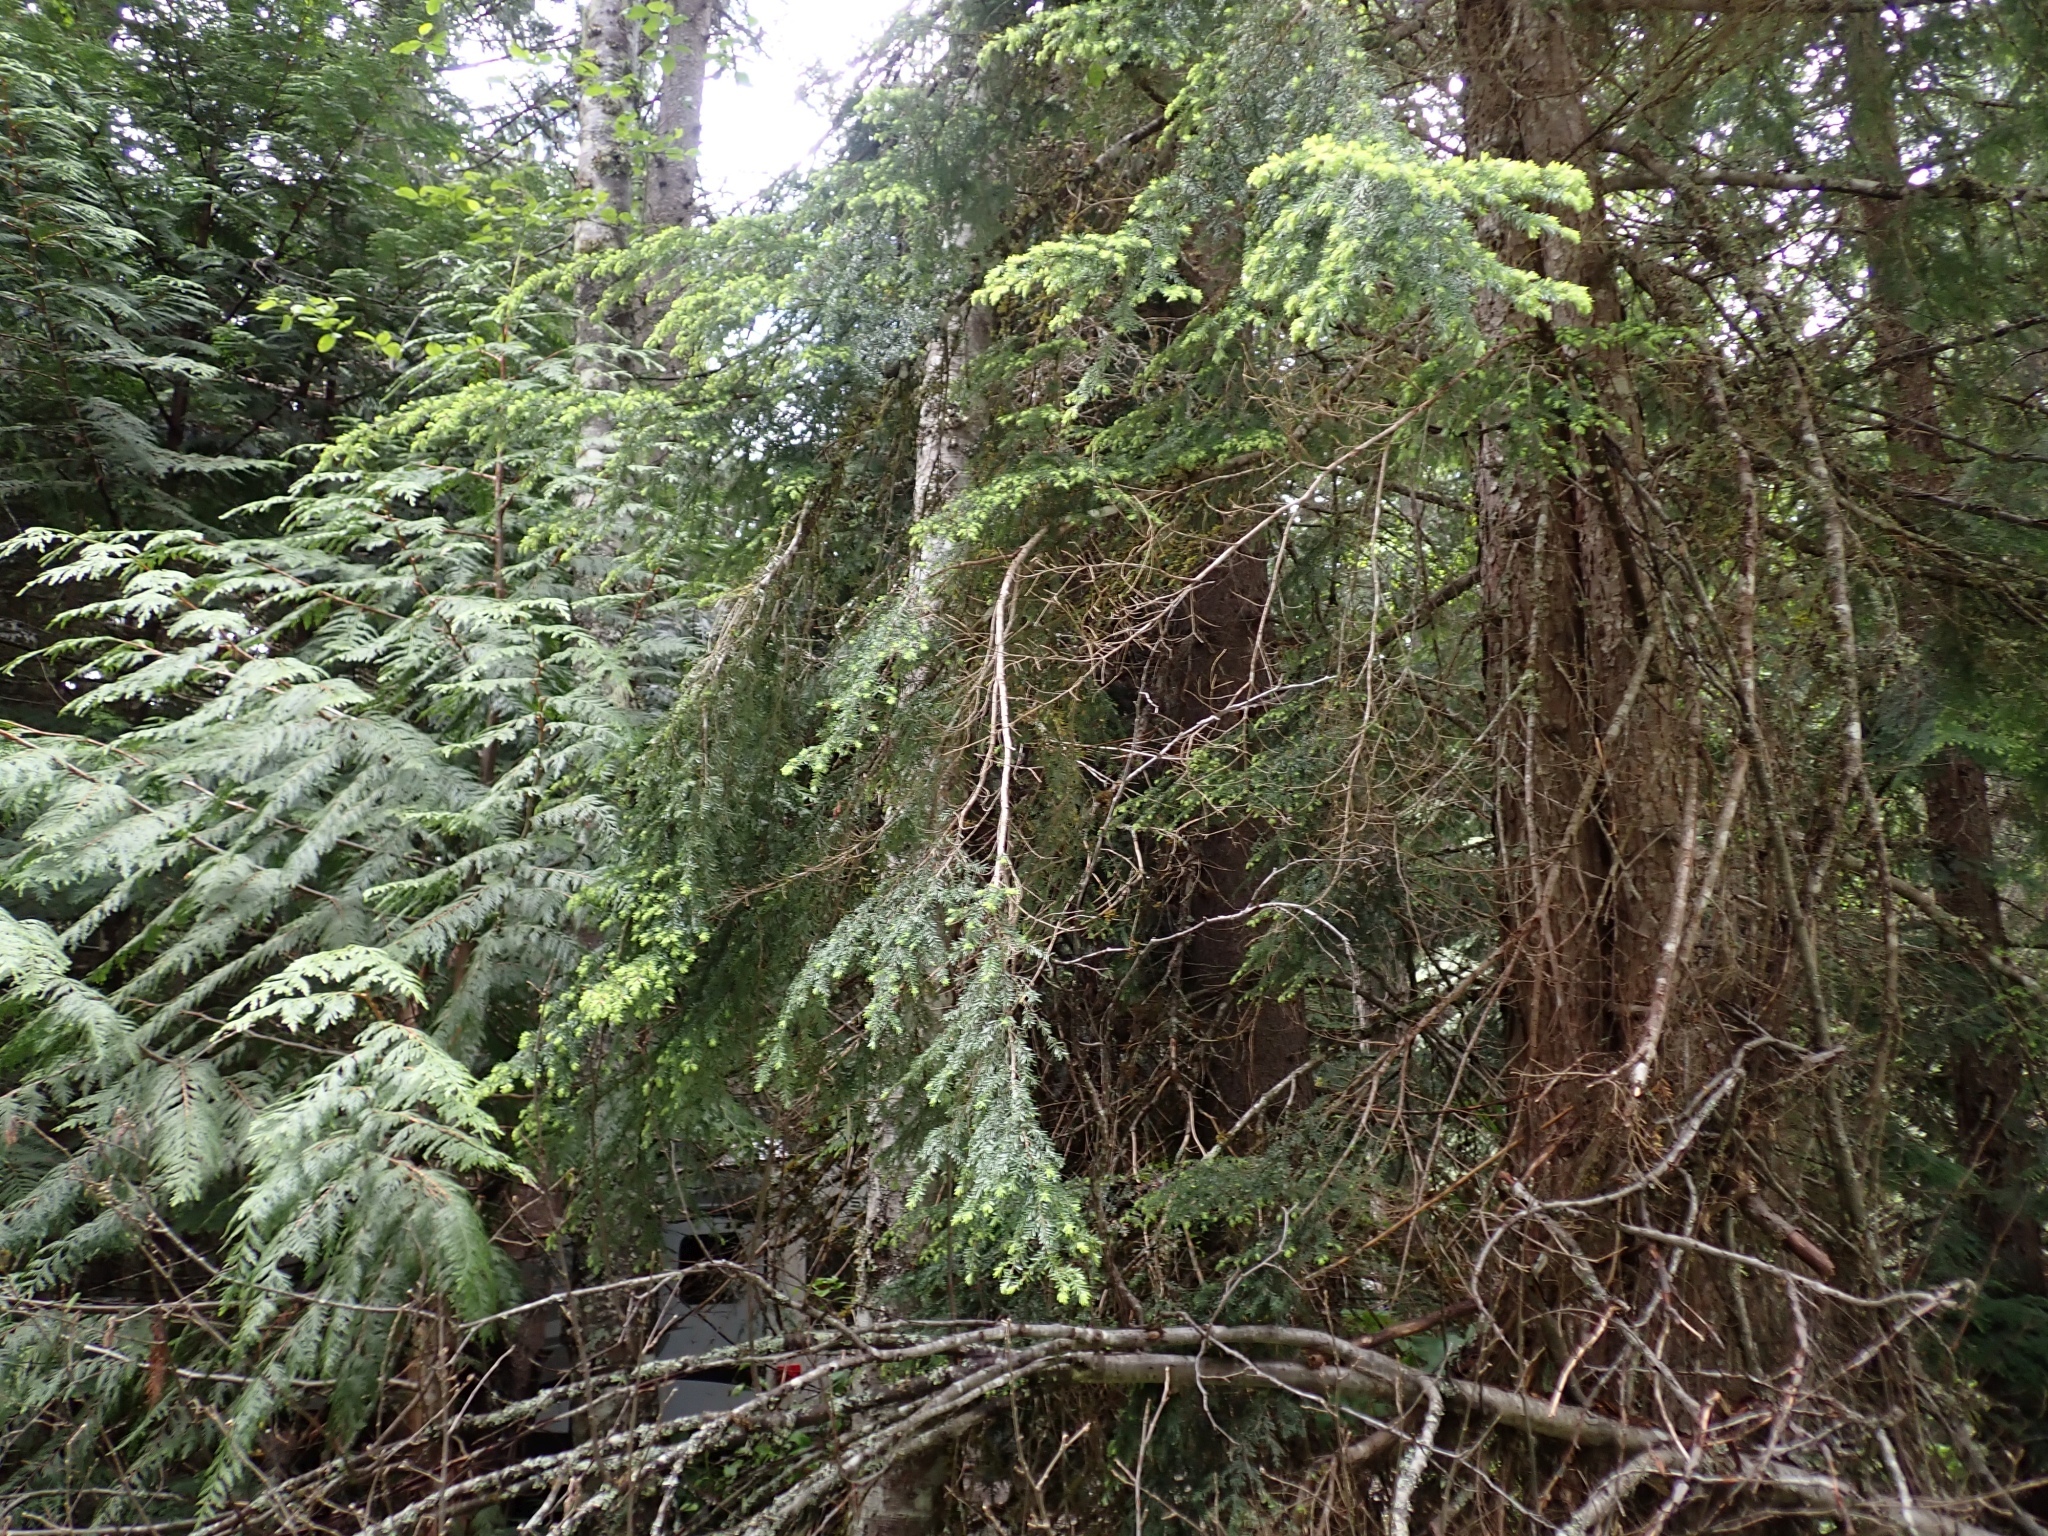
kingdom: Plantae
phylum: Tracheophyta
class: Pinopsida
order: Pinales
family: Pinaceae
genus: Tsuga
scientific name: Tsuga heterophylla
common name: Western hemlock
